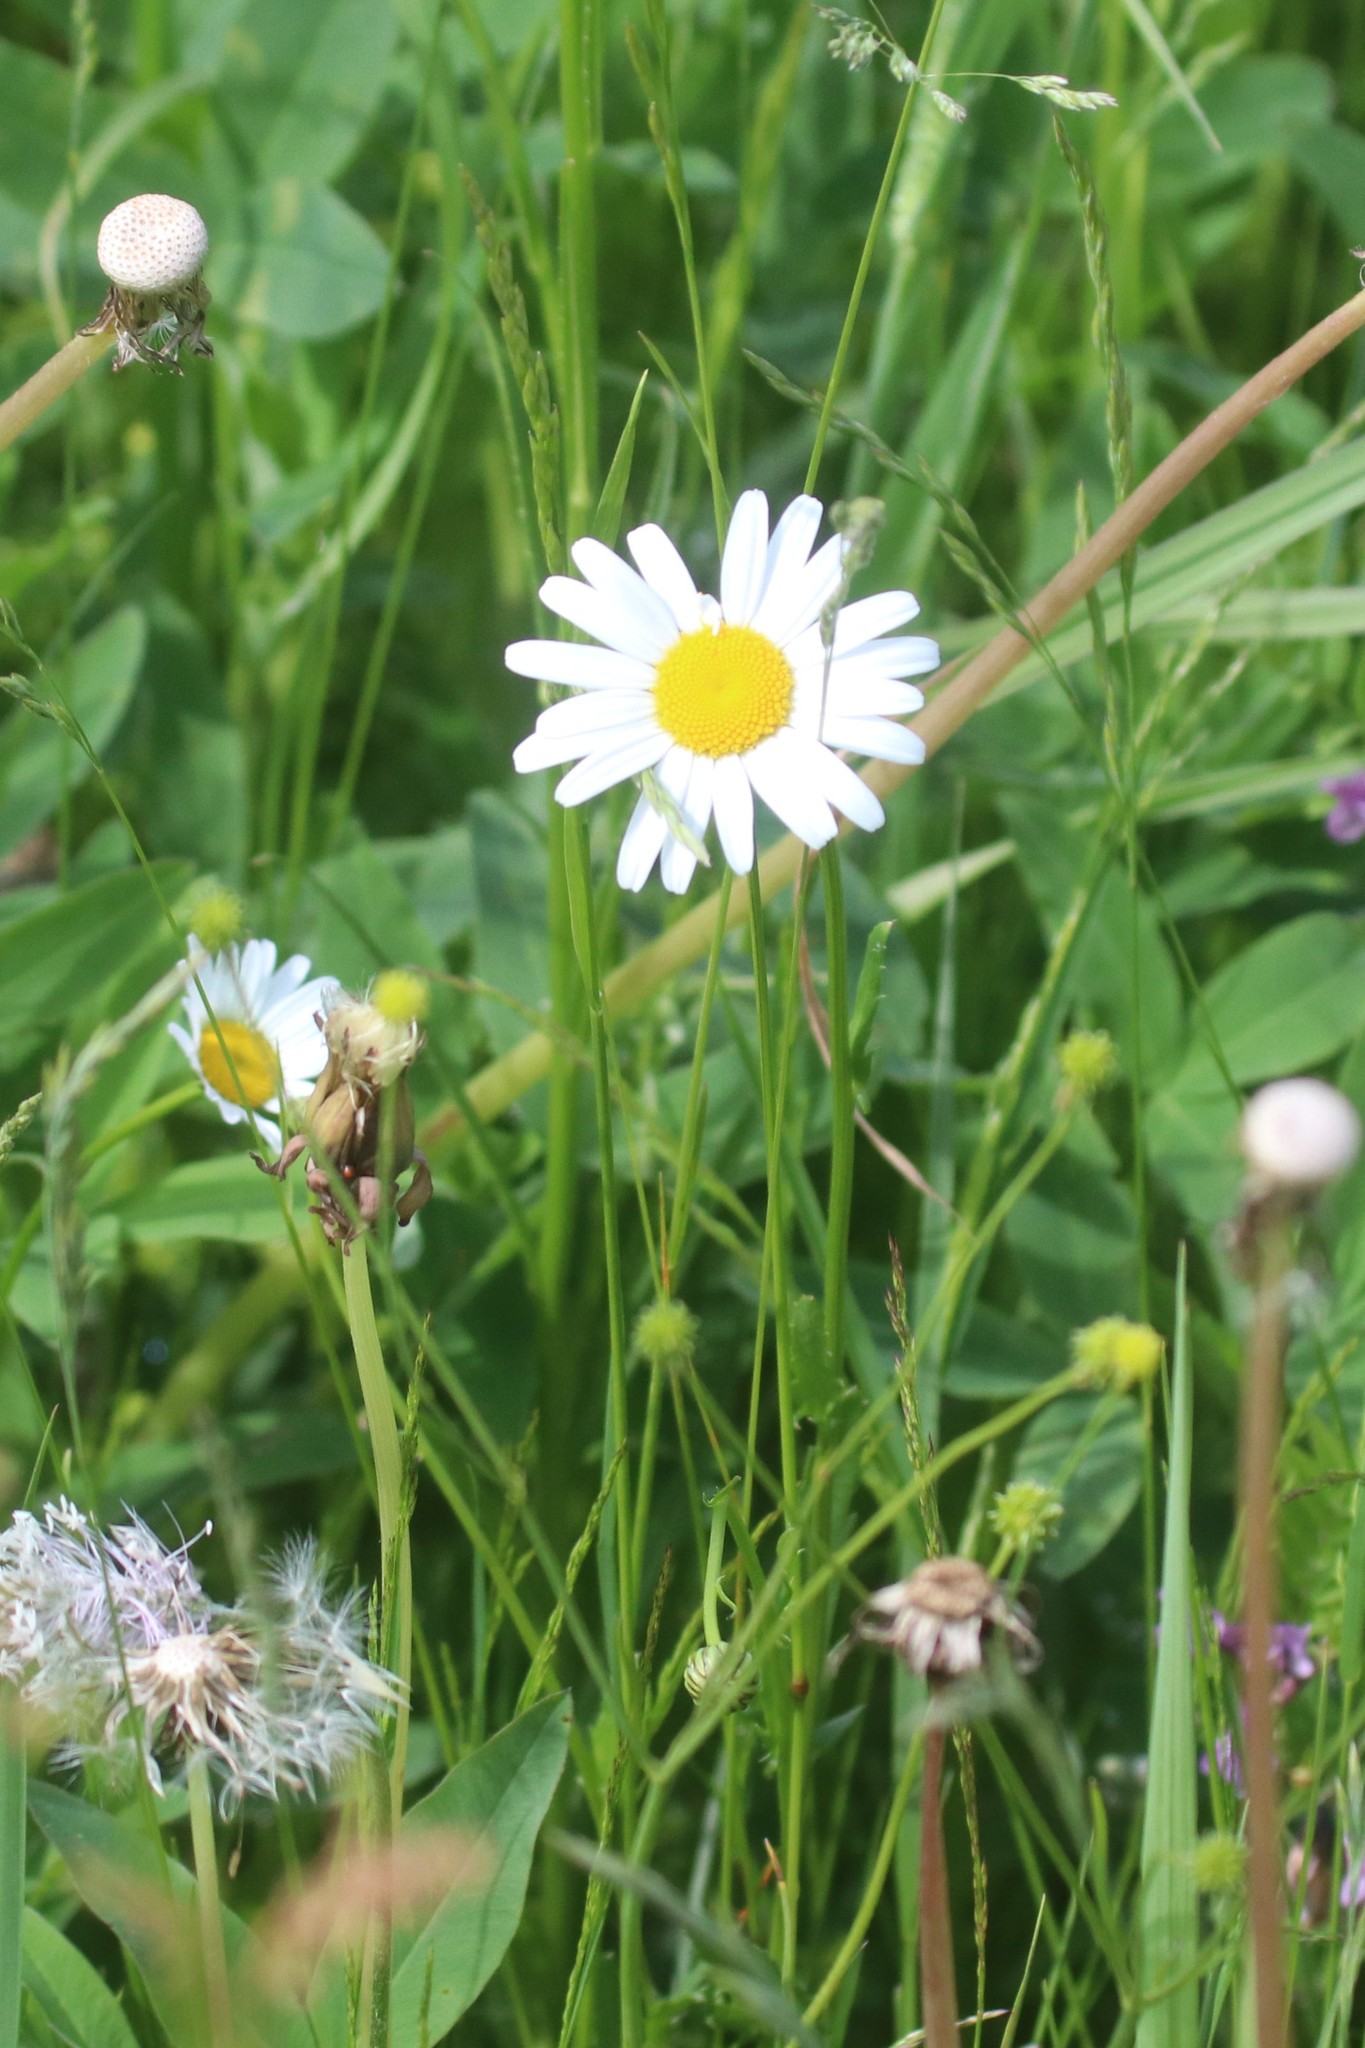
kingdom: Plantae
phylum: Tracheophyta
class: Magnoliopsida
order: Asterales
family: Asteraceae
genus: Leucanthemum
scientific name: Leucanthemum vulgare
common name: Oxeye daisy
